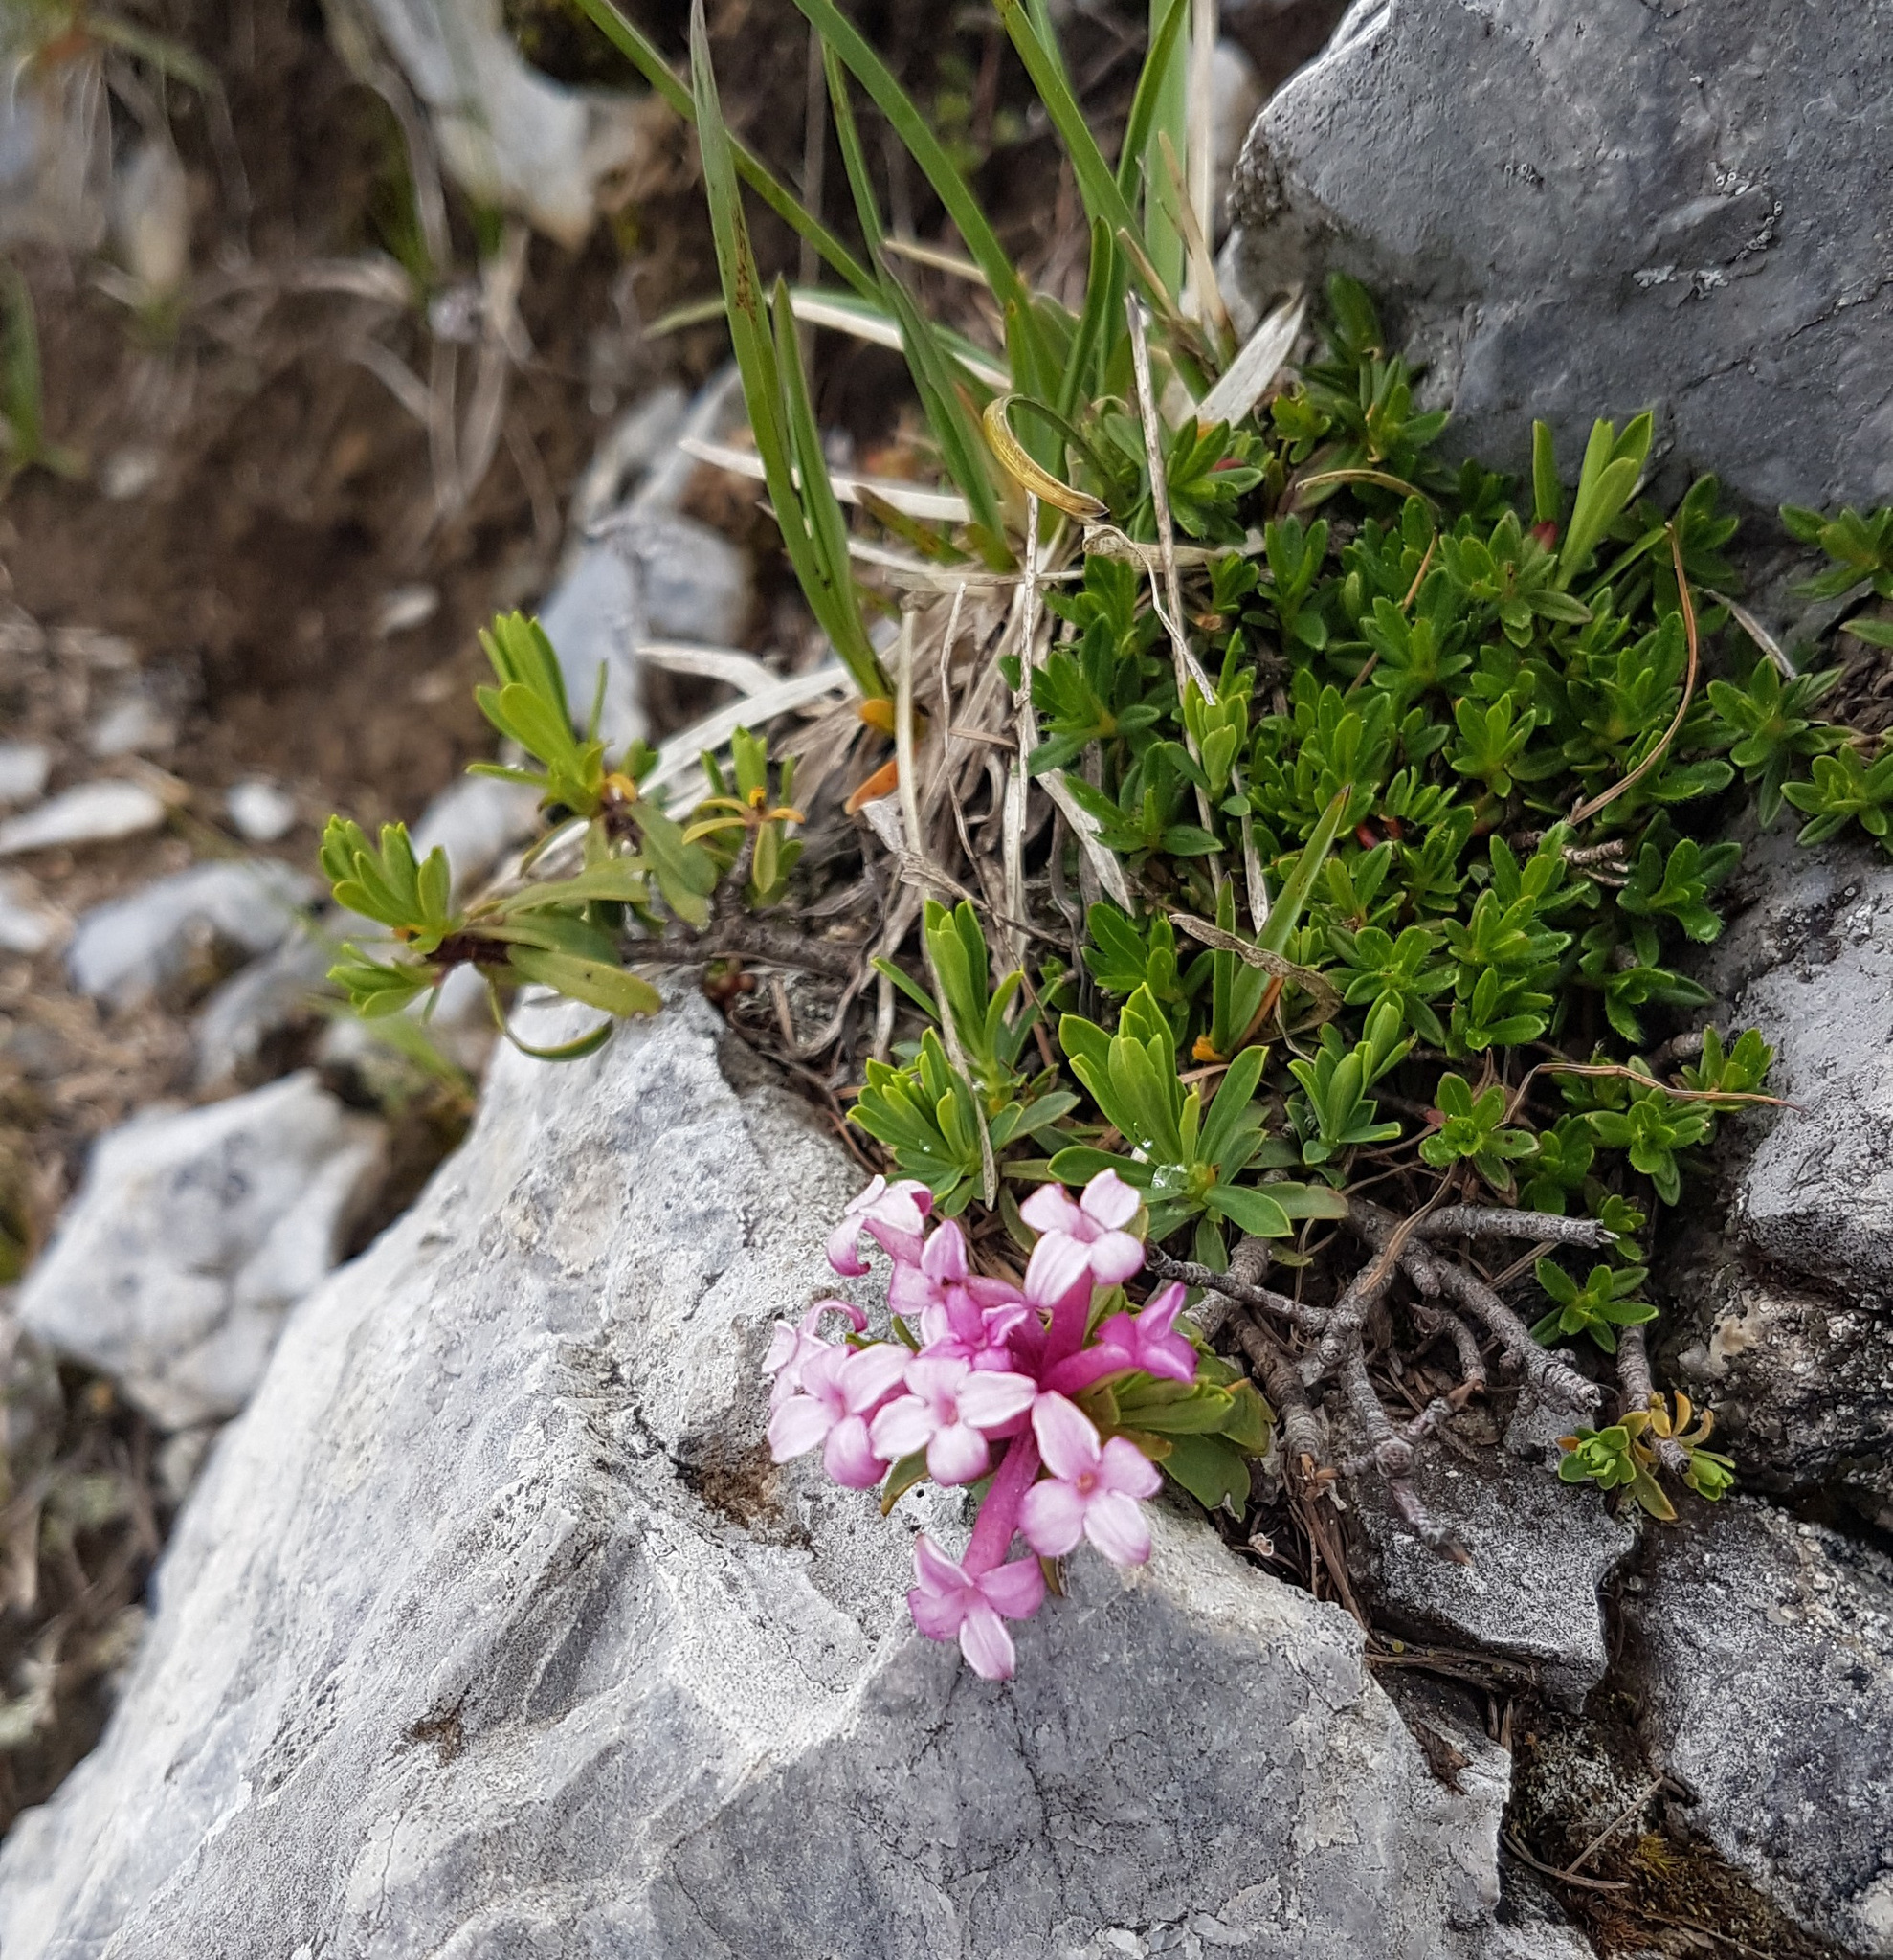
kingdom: Plantae
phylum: Tracheophyta
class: Magnoliopsida
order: Malvales
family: Thymelaeaceae
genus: Daphne
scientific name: Daphne striata
